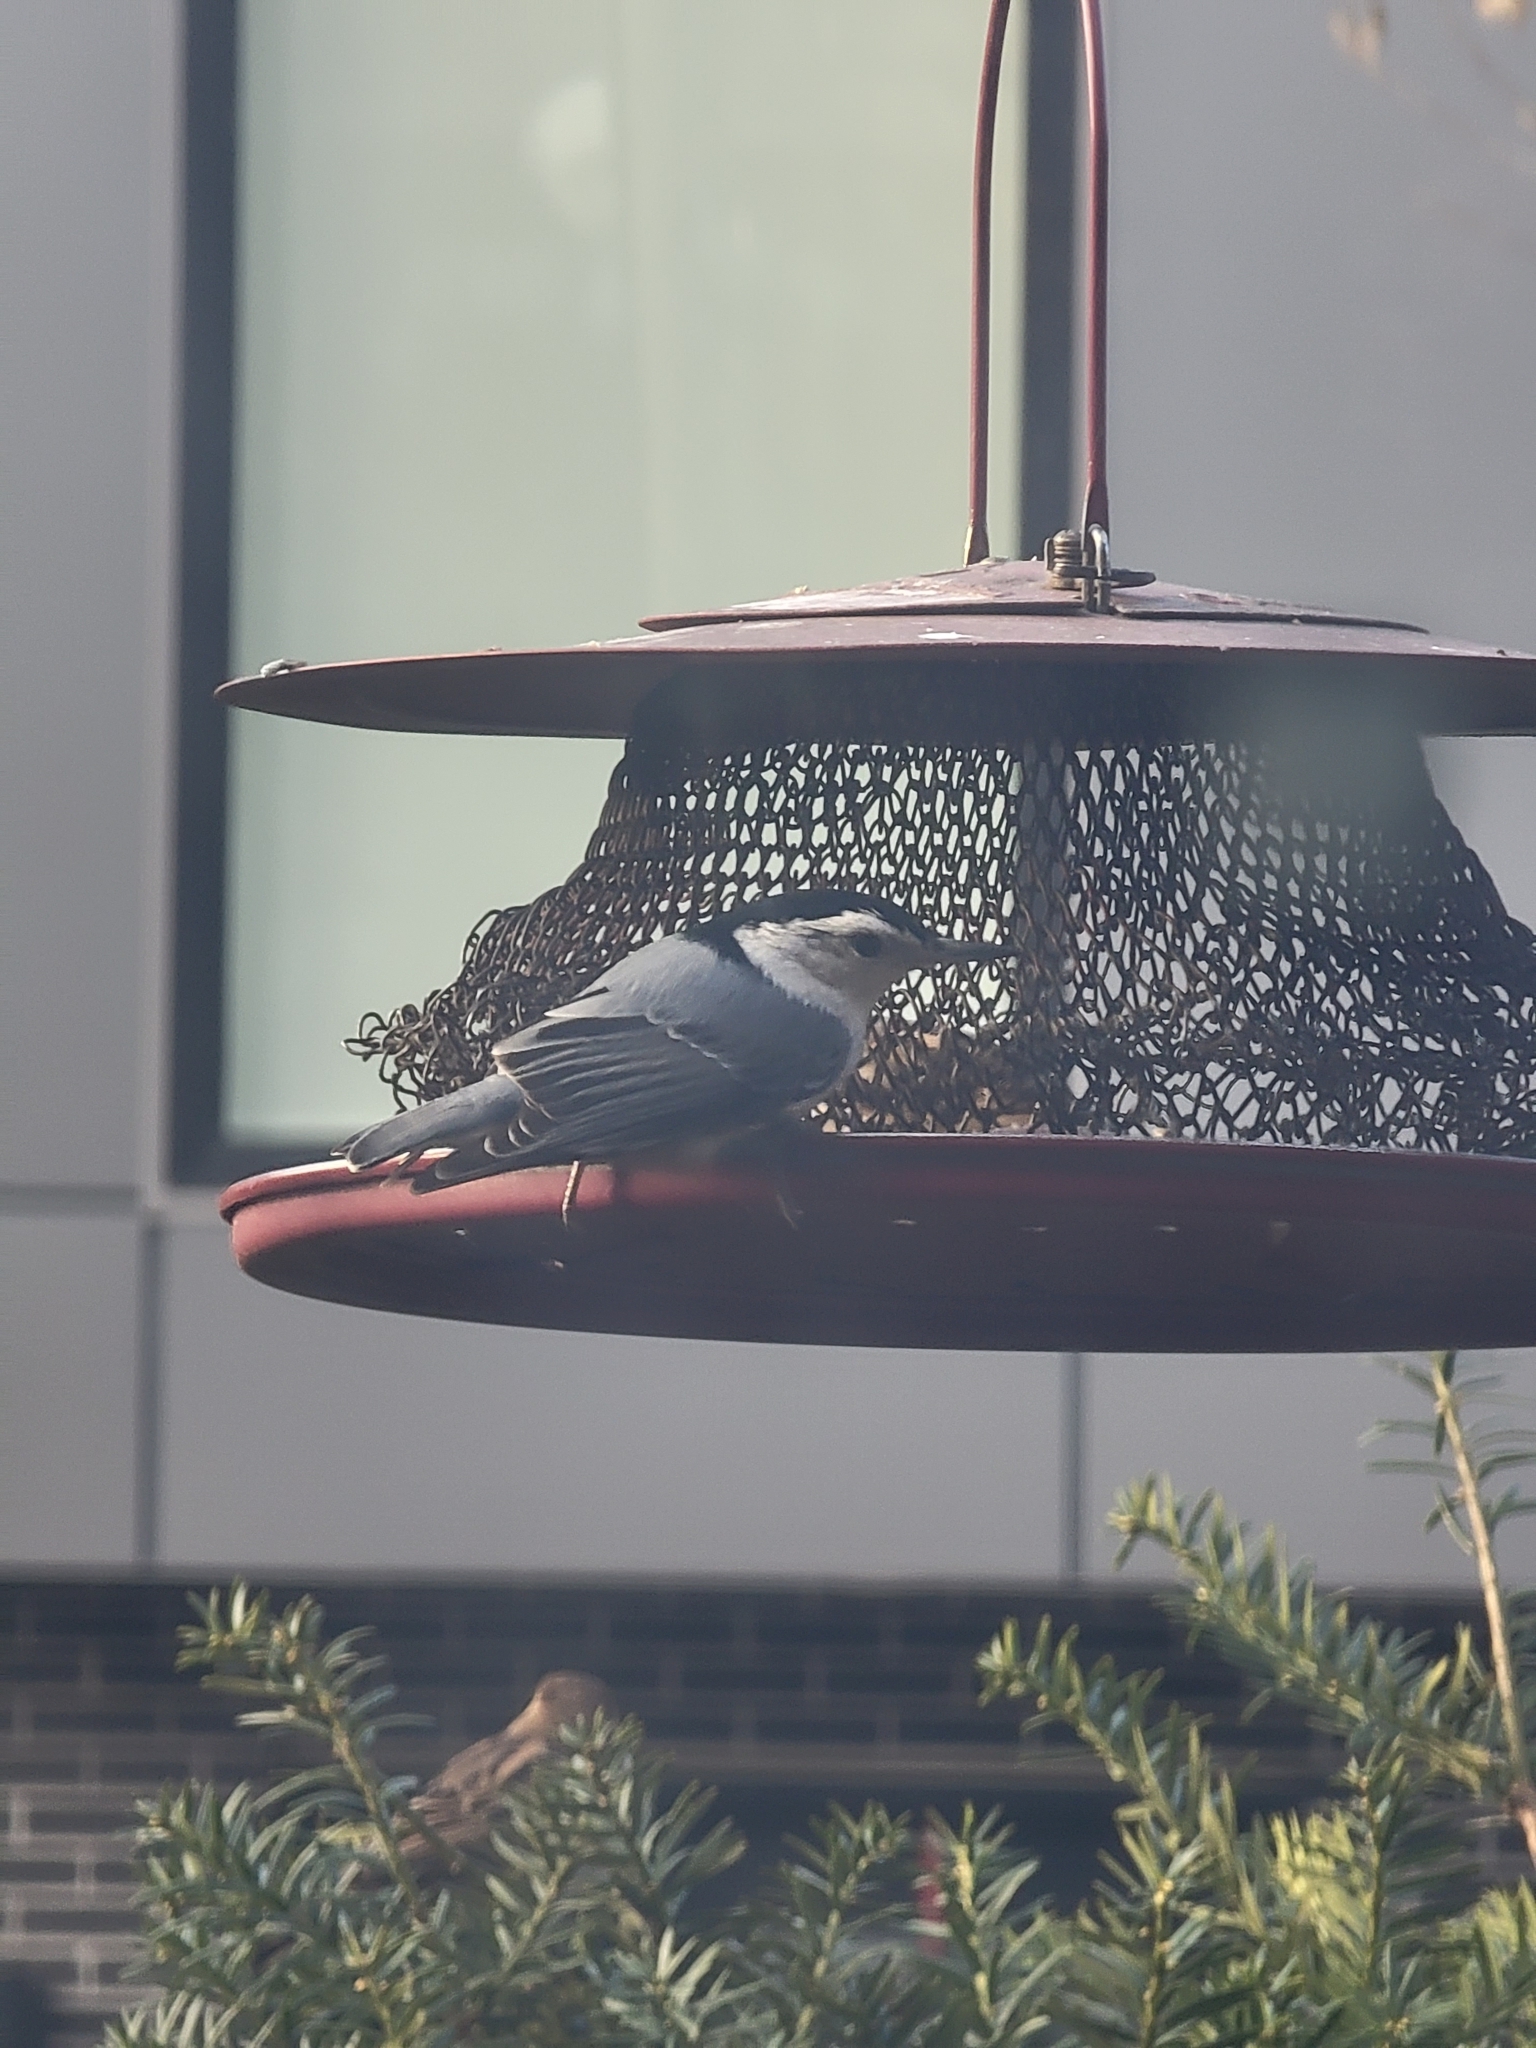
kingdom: Animalia
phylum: Chordata
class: Aves
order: Passeriformes
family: Sittidae
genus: Sitta
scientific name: Sitta carolinensis
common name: White-breasted nuthatch
